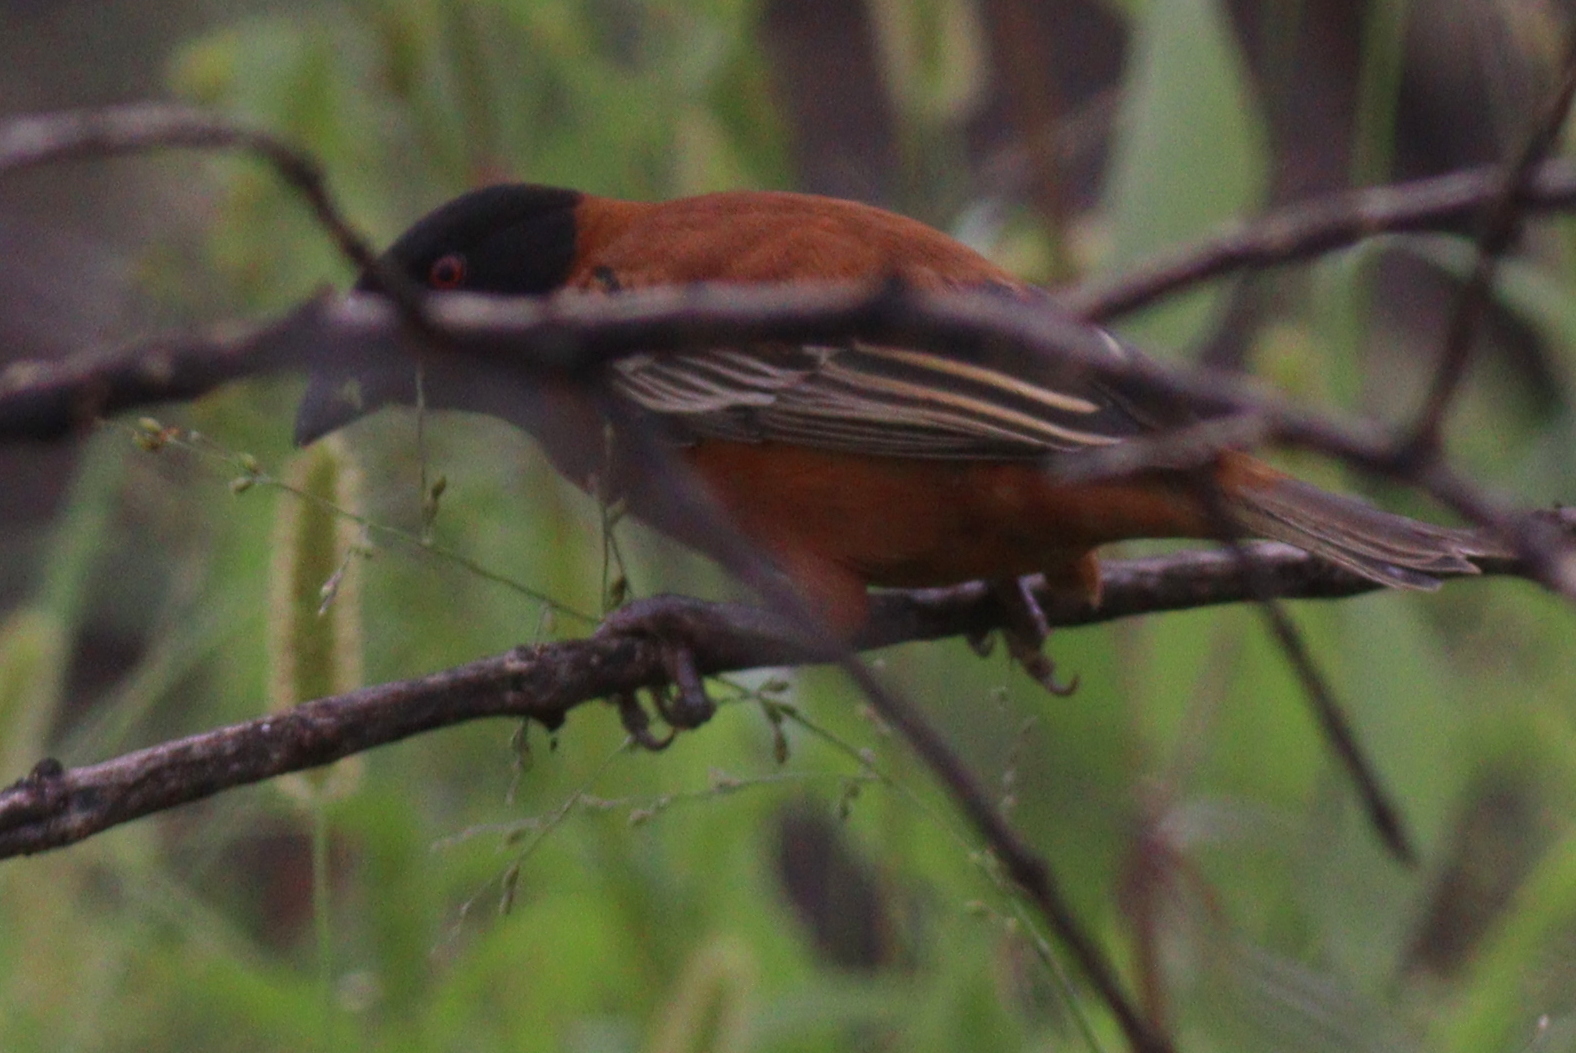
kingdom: Animalia
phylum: Chordata
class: Aves
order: Passeriformes
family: Ploceidae
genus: Ploceus
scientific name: Ploceus rubiginosus
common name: Chestnut weaver
